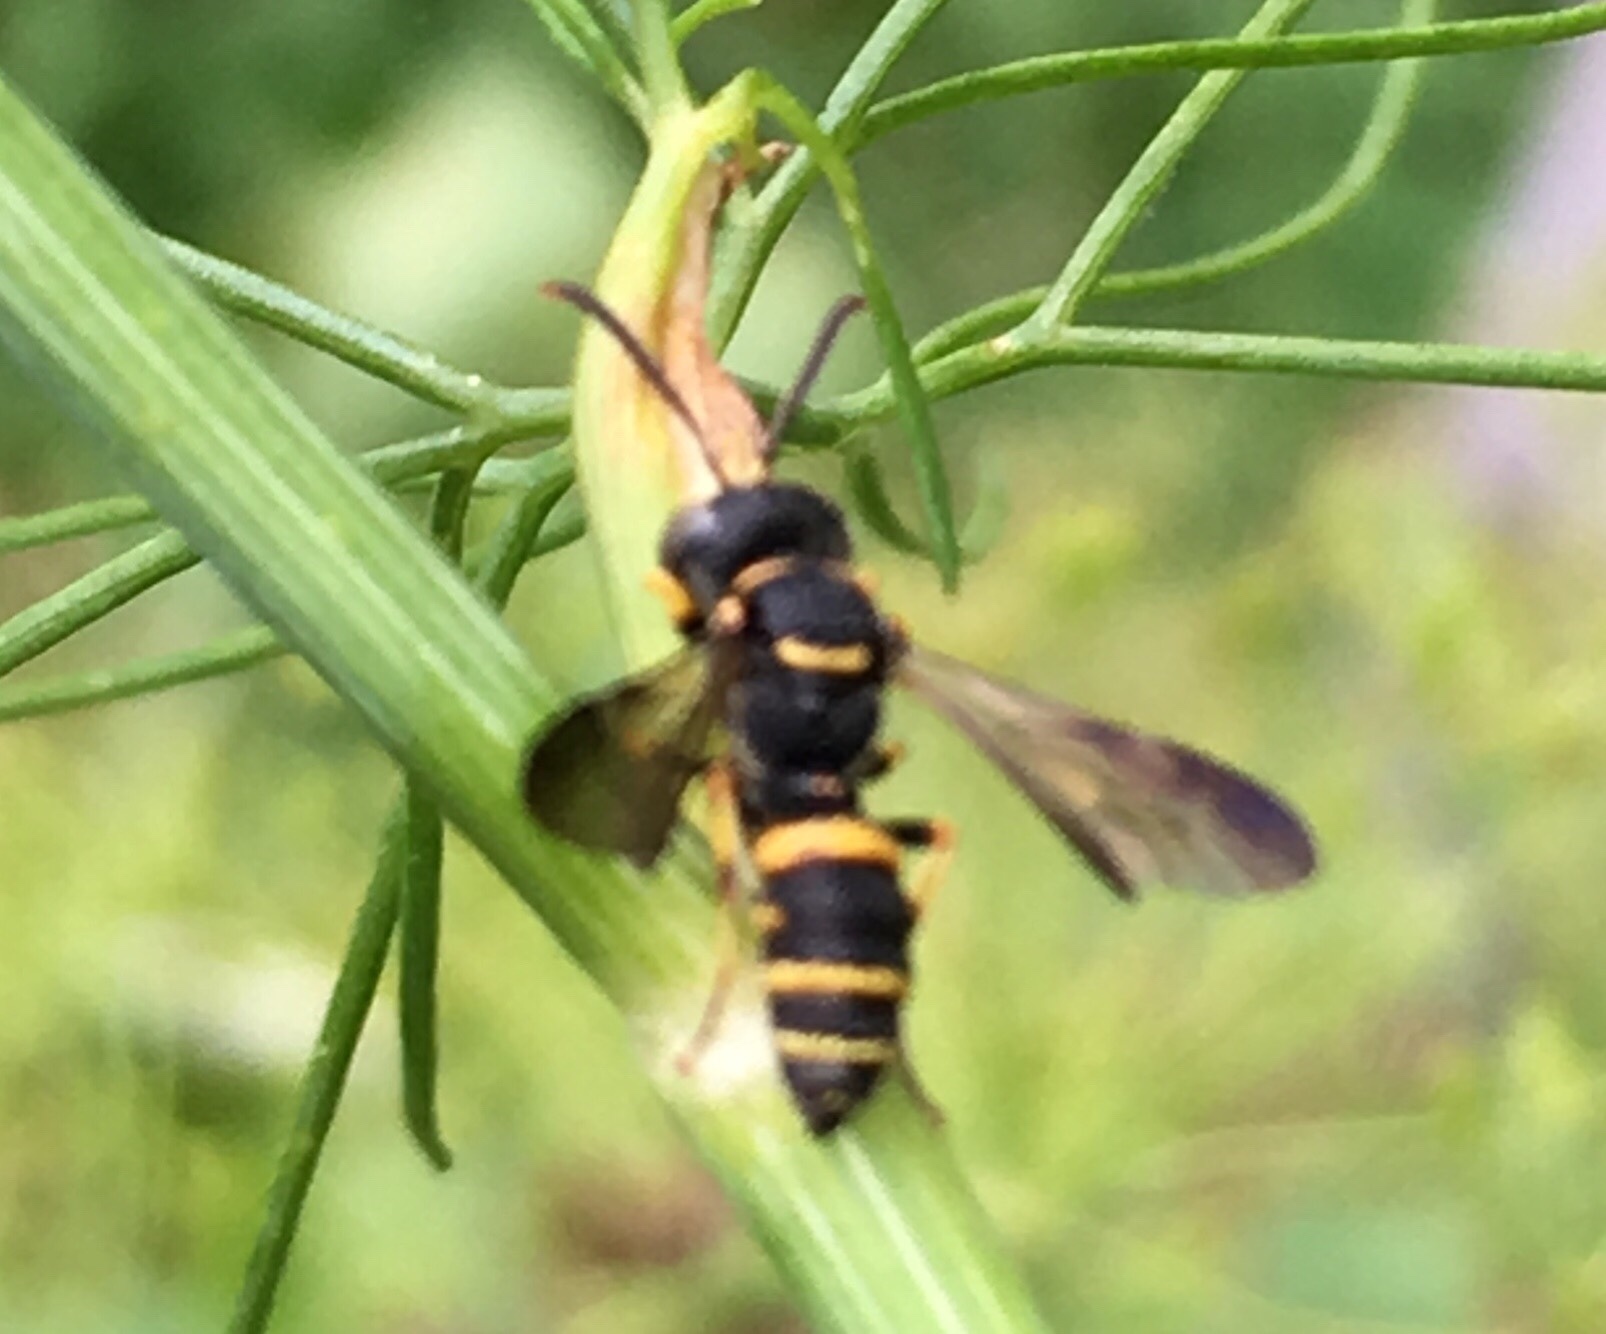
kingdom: Animalia
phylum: Arthropoda
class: Insecta
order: Hymenoptera
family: Crabronidae
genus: Cerceris
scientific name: Cerceris kennicottii
